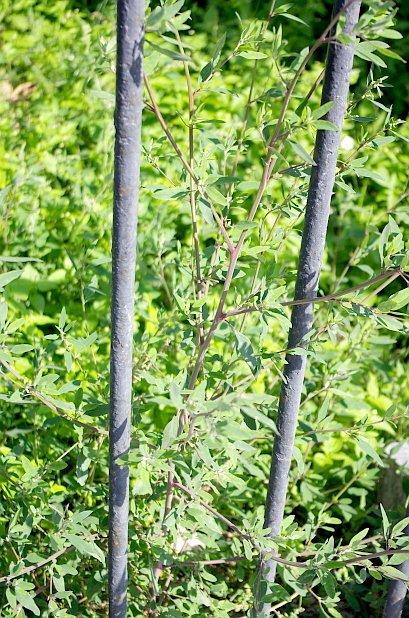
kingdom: Plantae
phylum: Tracheophyta
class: Magnoliopsida
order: Caryophyllales
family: Amaranthaceae
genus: Chenopodium
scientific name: Chenopodium betaceum
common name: Striped goosefoot
